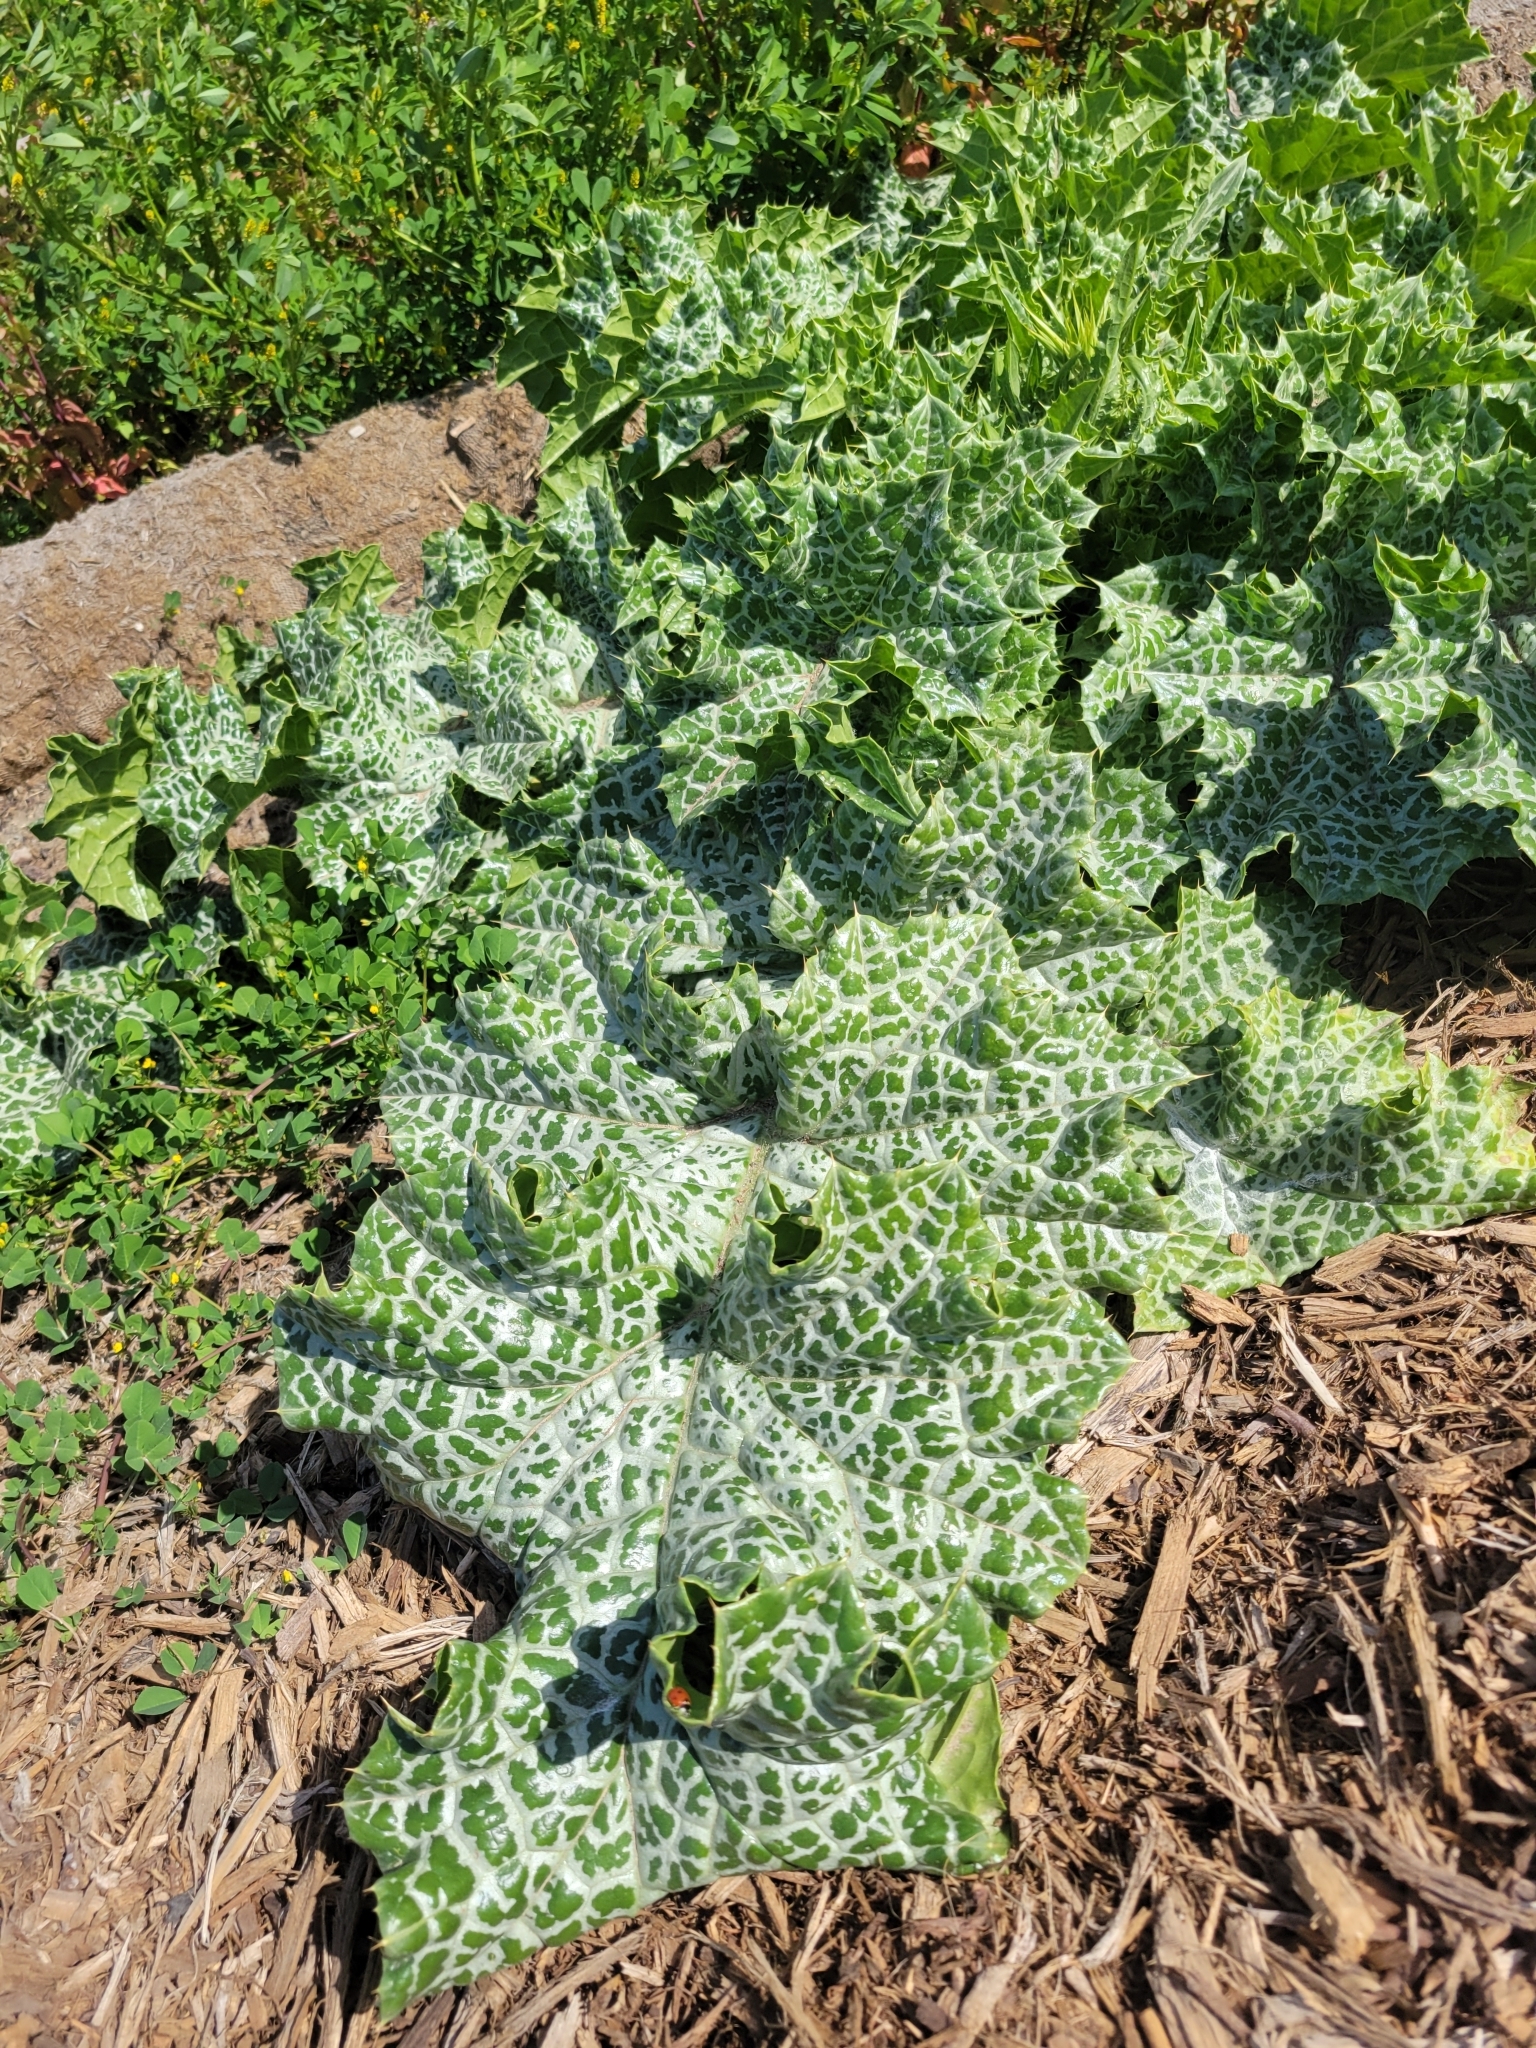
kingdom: Plantae
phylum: Tracheophyta
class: Magnoliopsida
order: Asterales
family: Asteraceae
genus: Silybum
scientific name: Silybum marianum
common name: Milk thistle
